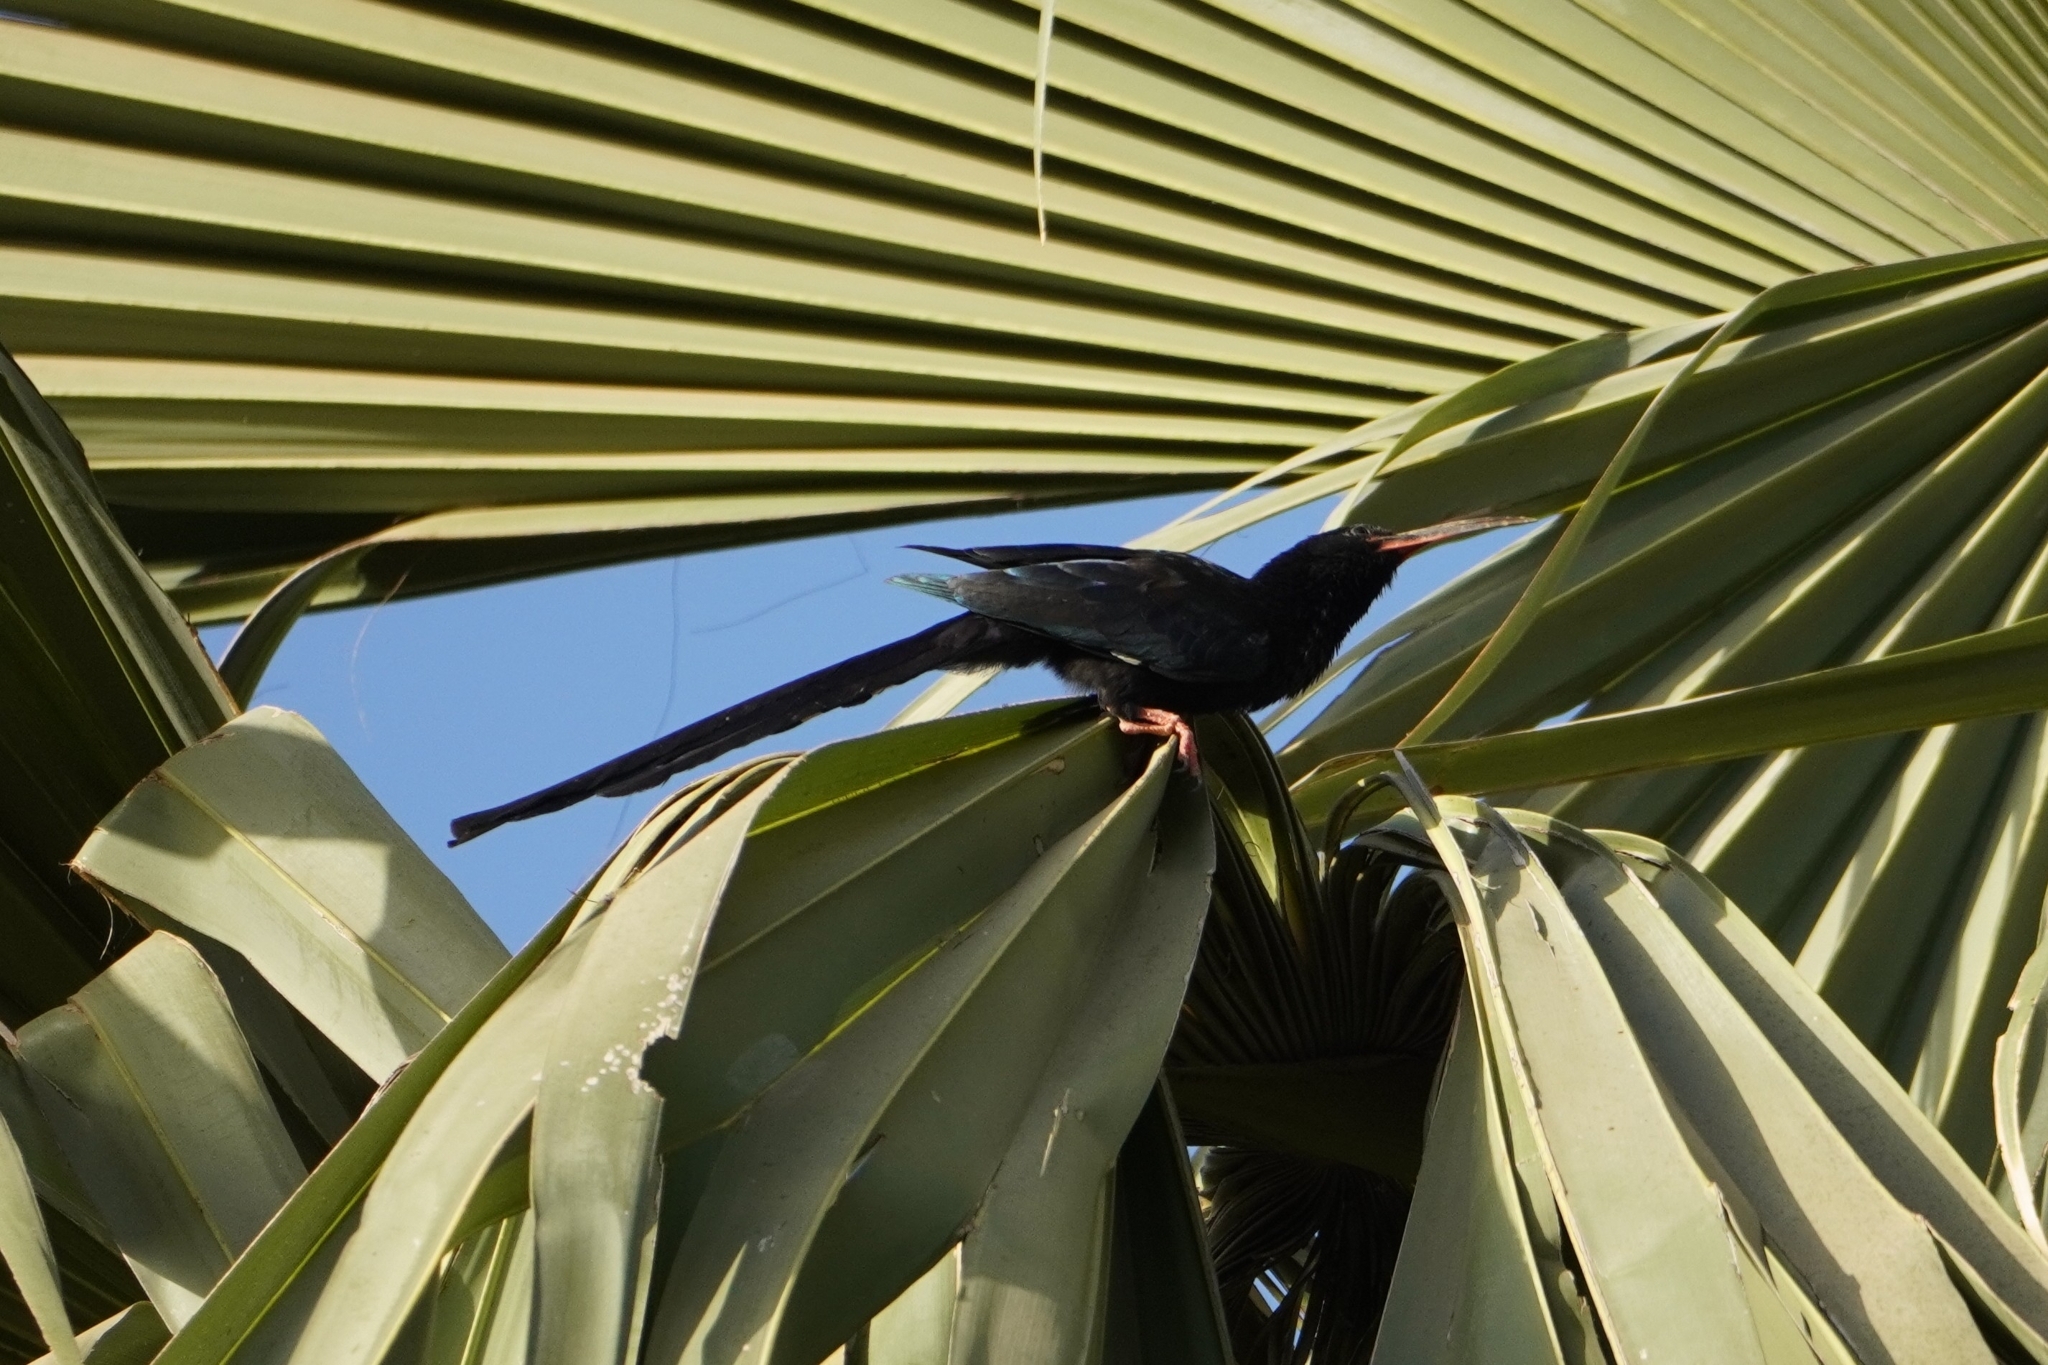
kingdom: Animalia
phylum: Chordata
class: Aves
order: Bucerotiformes
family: Phoeniculidae
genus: Phoeniculus
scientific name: Phoeniculus purpureus
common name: Green woodhoopoe
